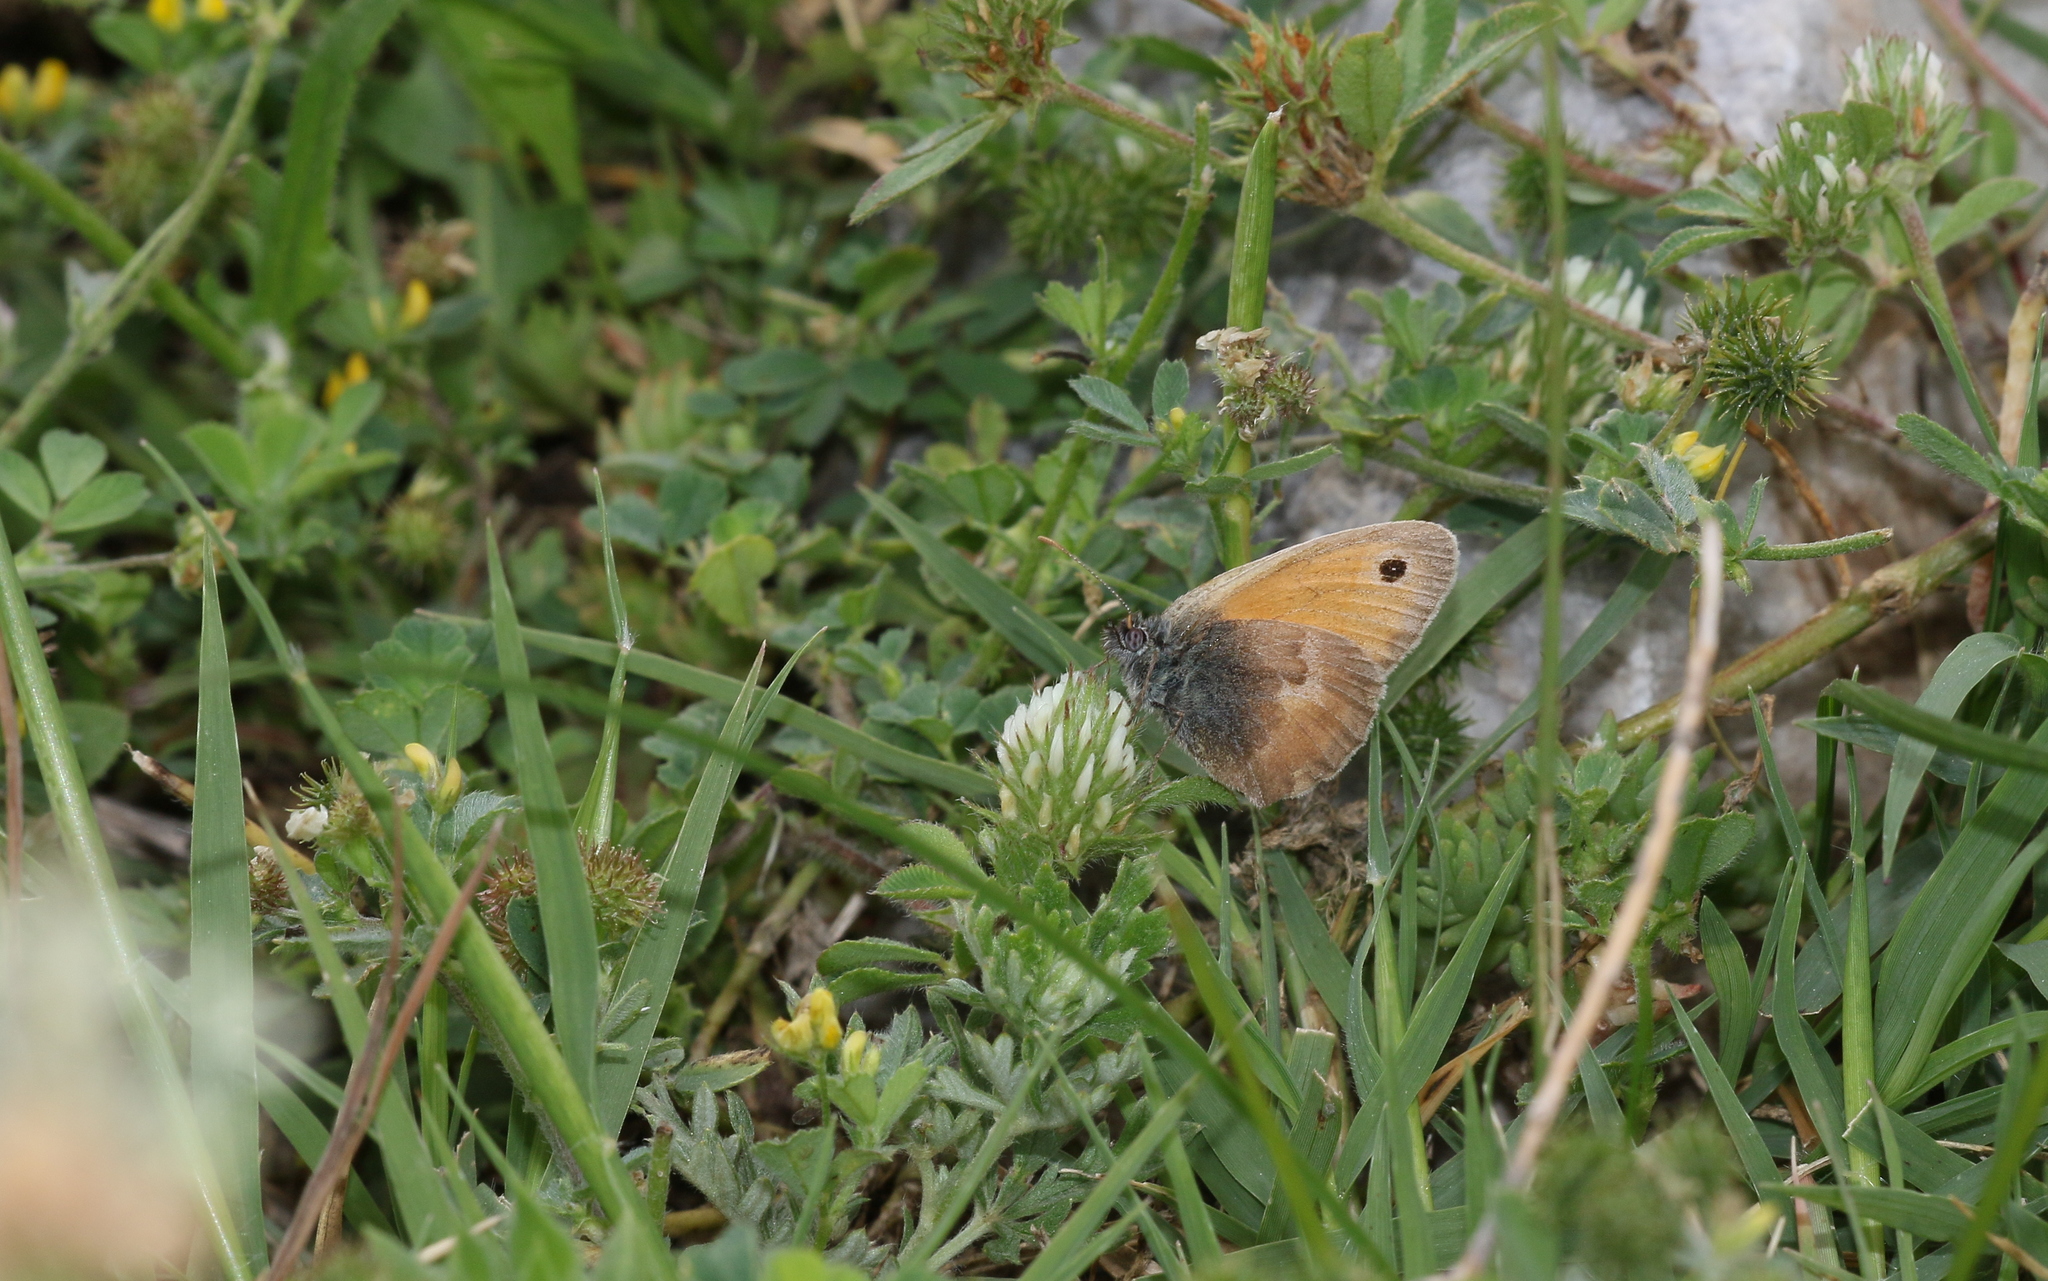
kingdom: Animalia
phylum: Arthropoda
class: Insecta
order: Lepidoptera
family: Nymphalidae
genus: Coenonympha
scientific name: Coenonympha pamphilus
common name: Small heath
